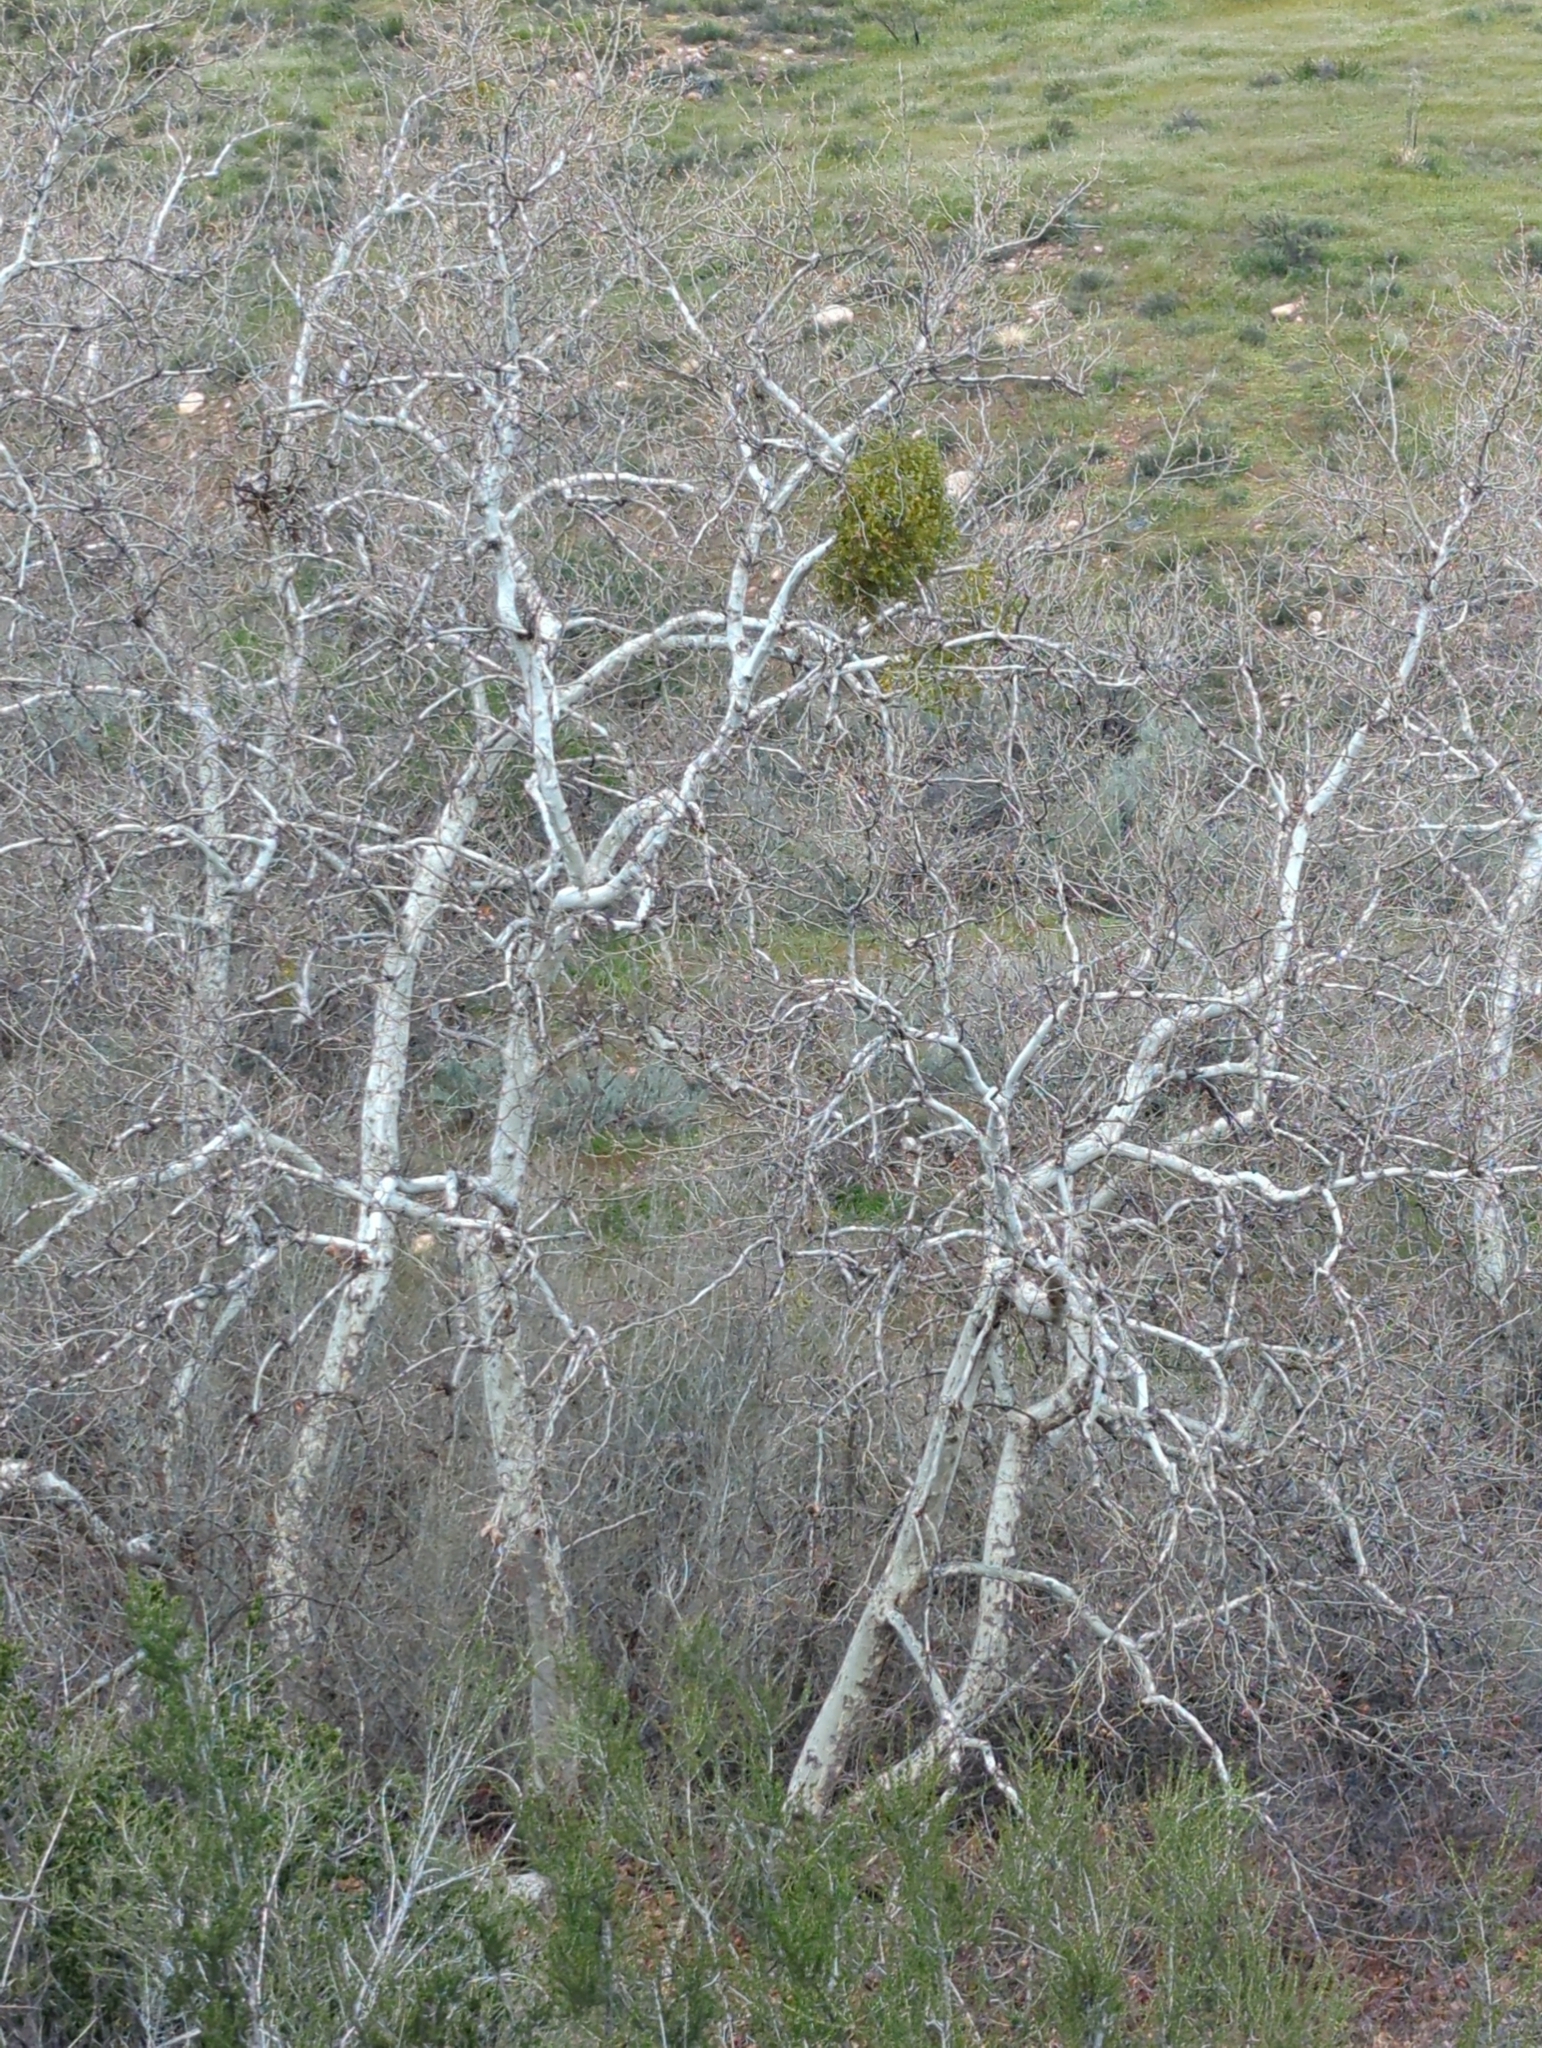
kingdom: Plantae
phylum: Tracheophyta
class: Magnoliopsida
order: Santalales
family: Viscaceae
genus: Phoradendron
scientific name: Phoradendron leucarpum
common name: Pacific mistletoe
